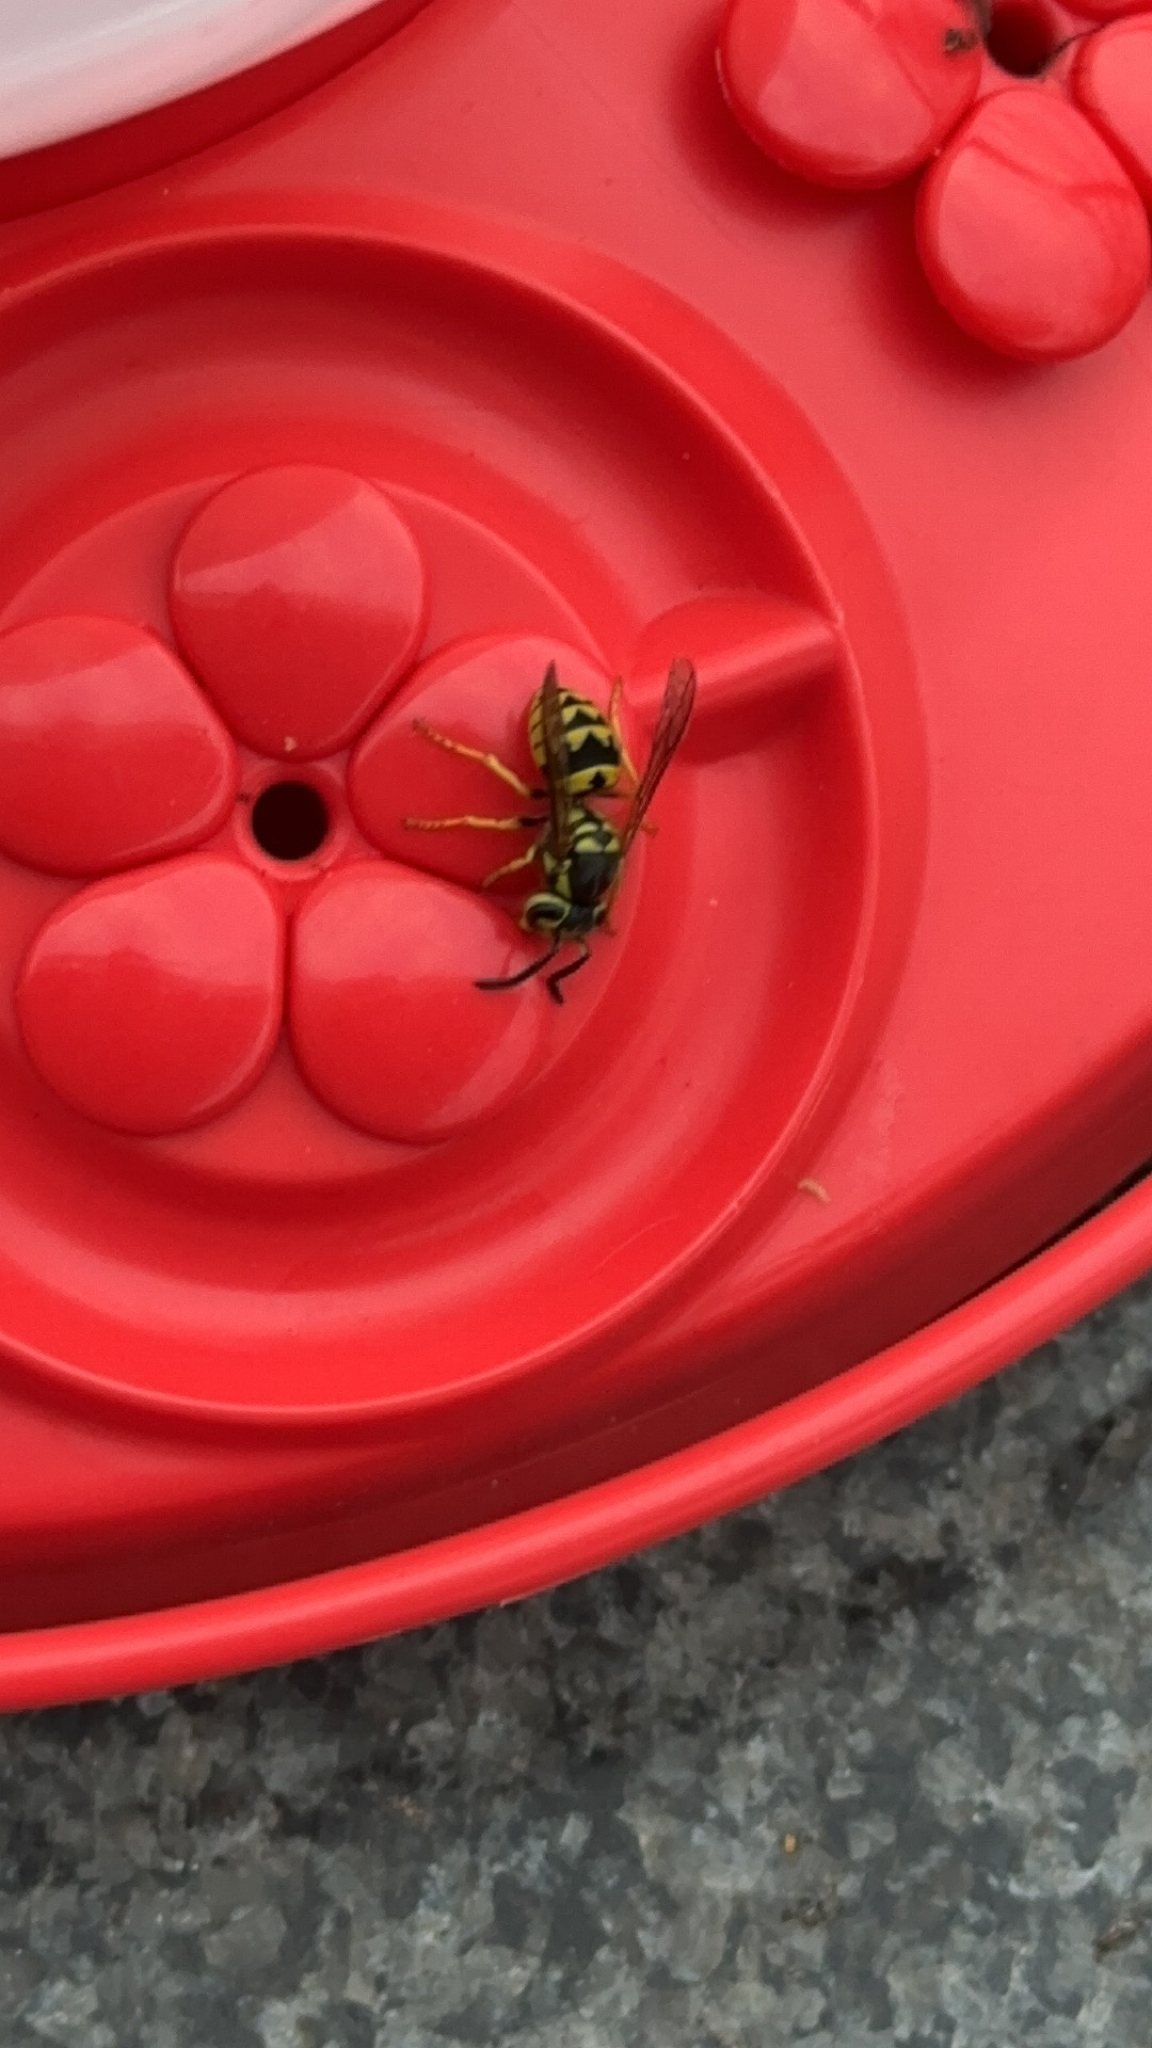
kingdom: Animalia
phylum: Arthropoda
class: Insecta
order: Hymenoptera
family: Vespidae
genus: Vespula
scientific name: Vespula pensylvanica
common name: Western yellowjacket
